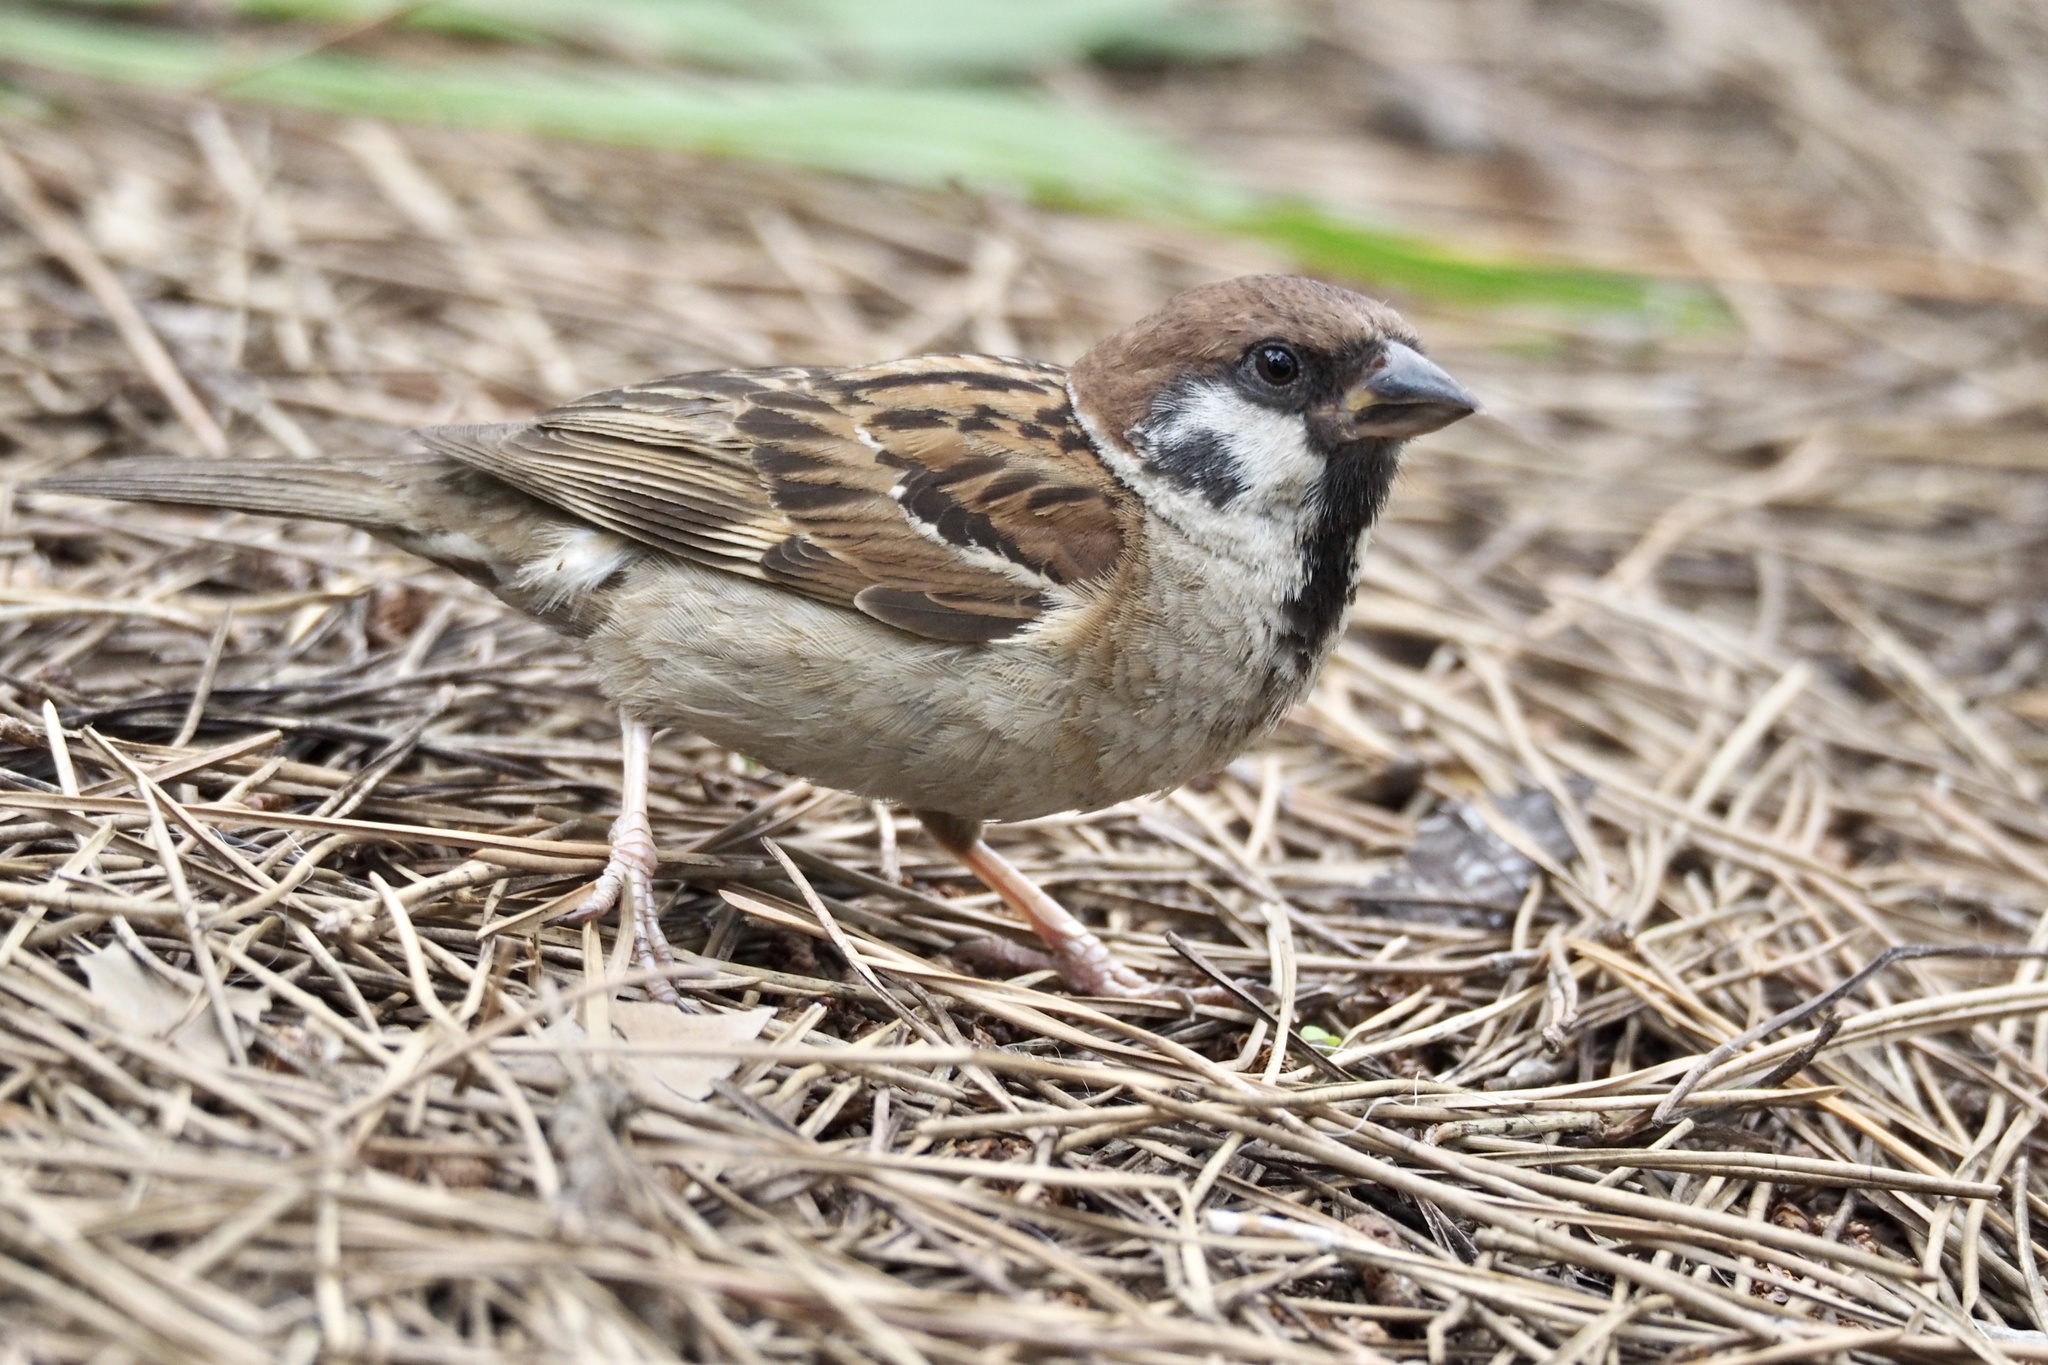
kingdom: Animalia
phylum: Chordata
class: Aves
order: Passeriformes
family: Passeridae
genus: Passer
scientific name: Passer montanus
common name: Eurasian tree sparrow
